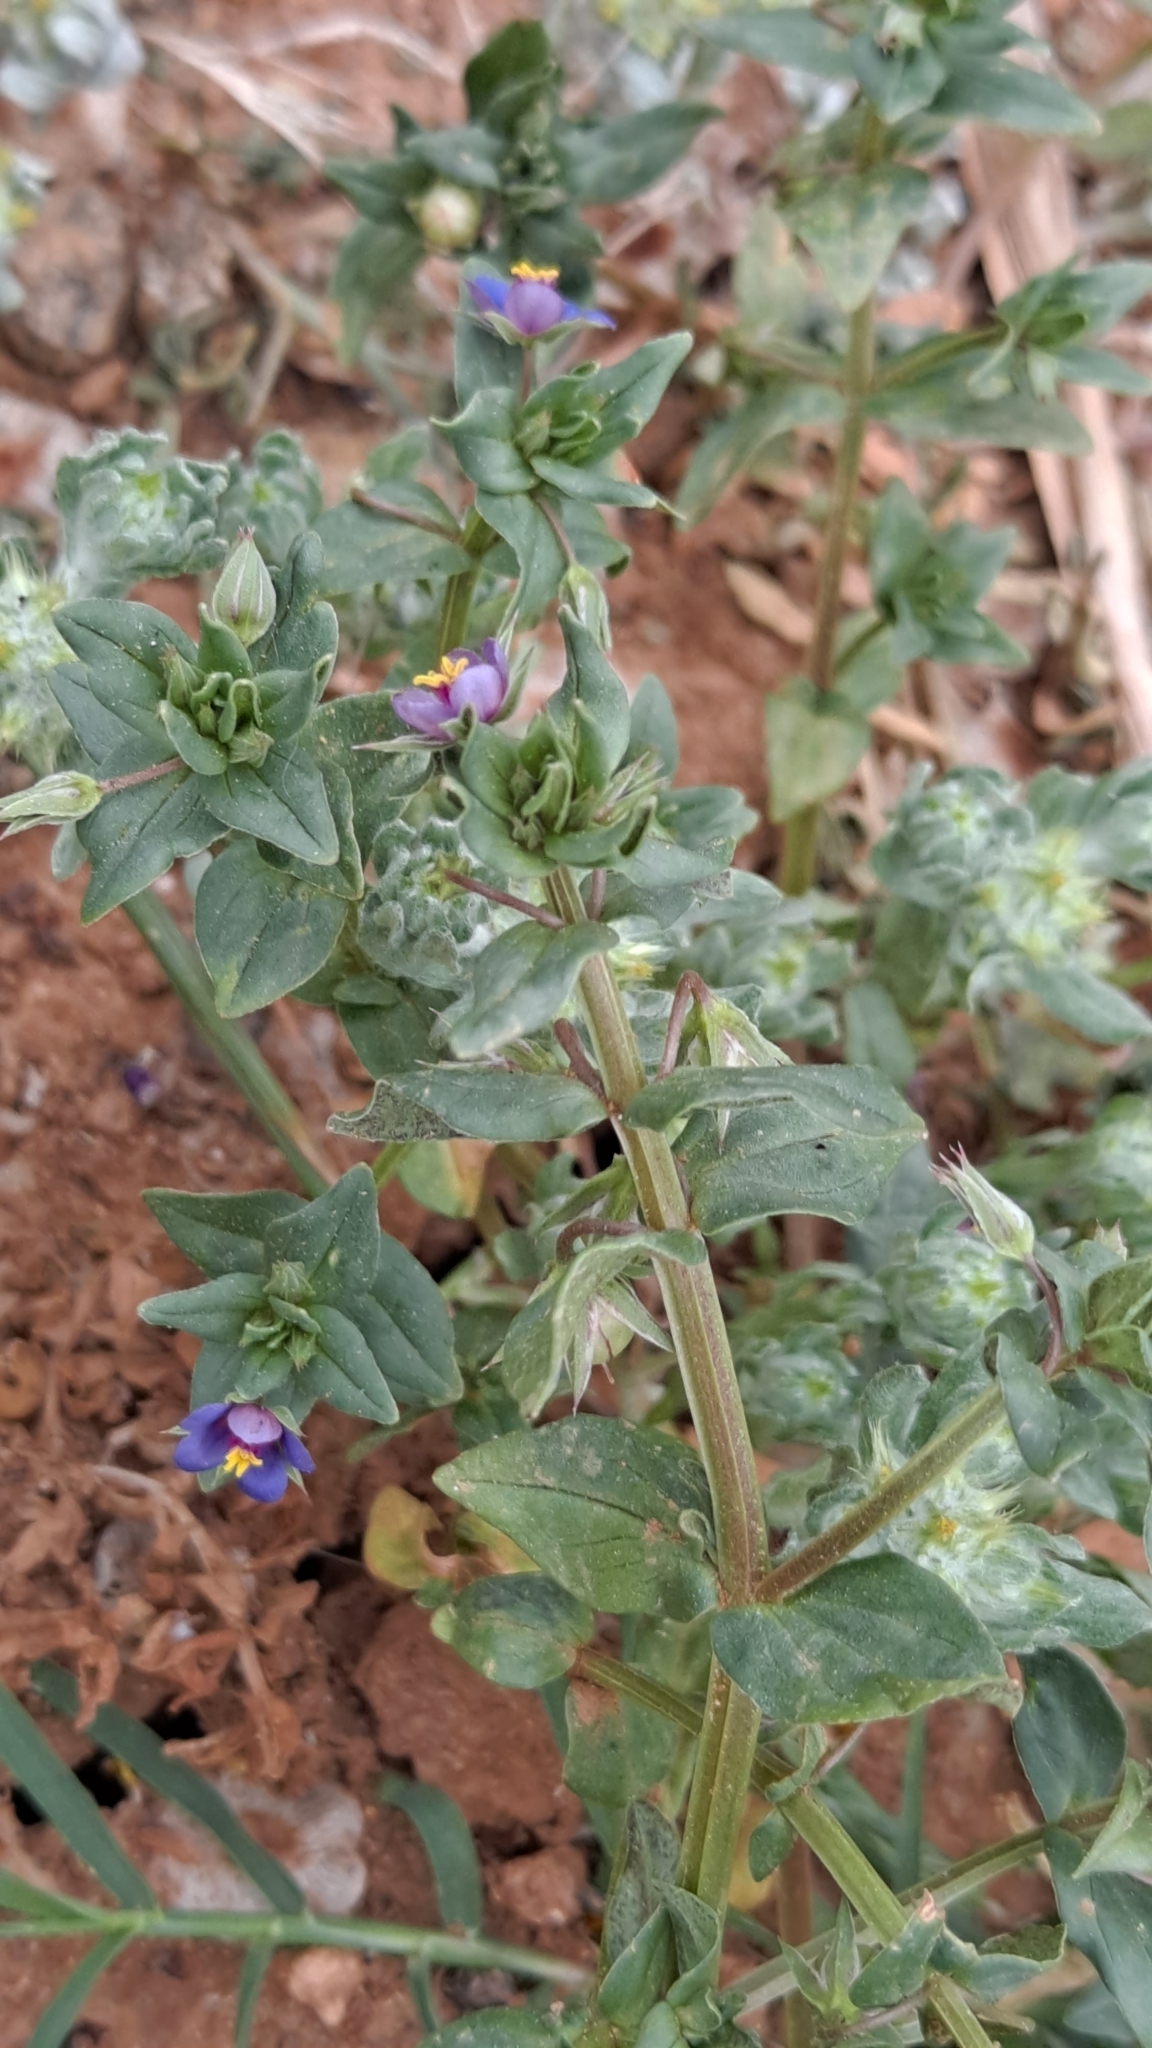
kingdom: Plantae
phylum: Tracheophyta
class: Magnoliopsida
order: Ericales
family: Primulaceae
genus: Lysimachia
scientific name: Lysimachia foemina
